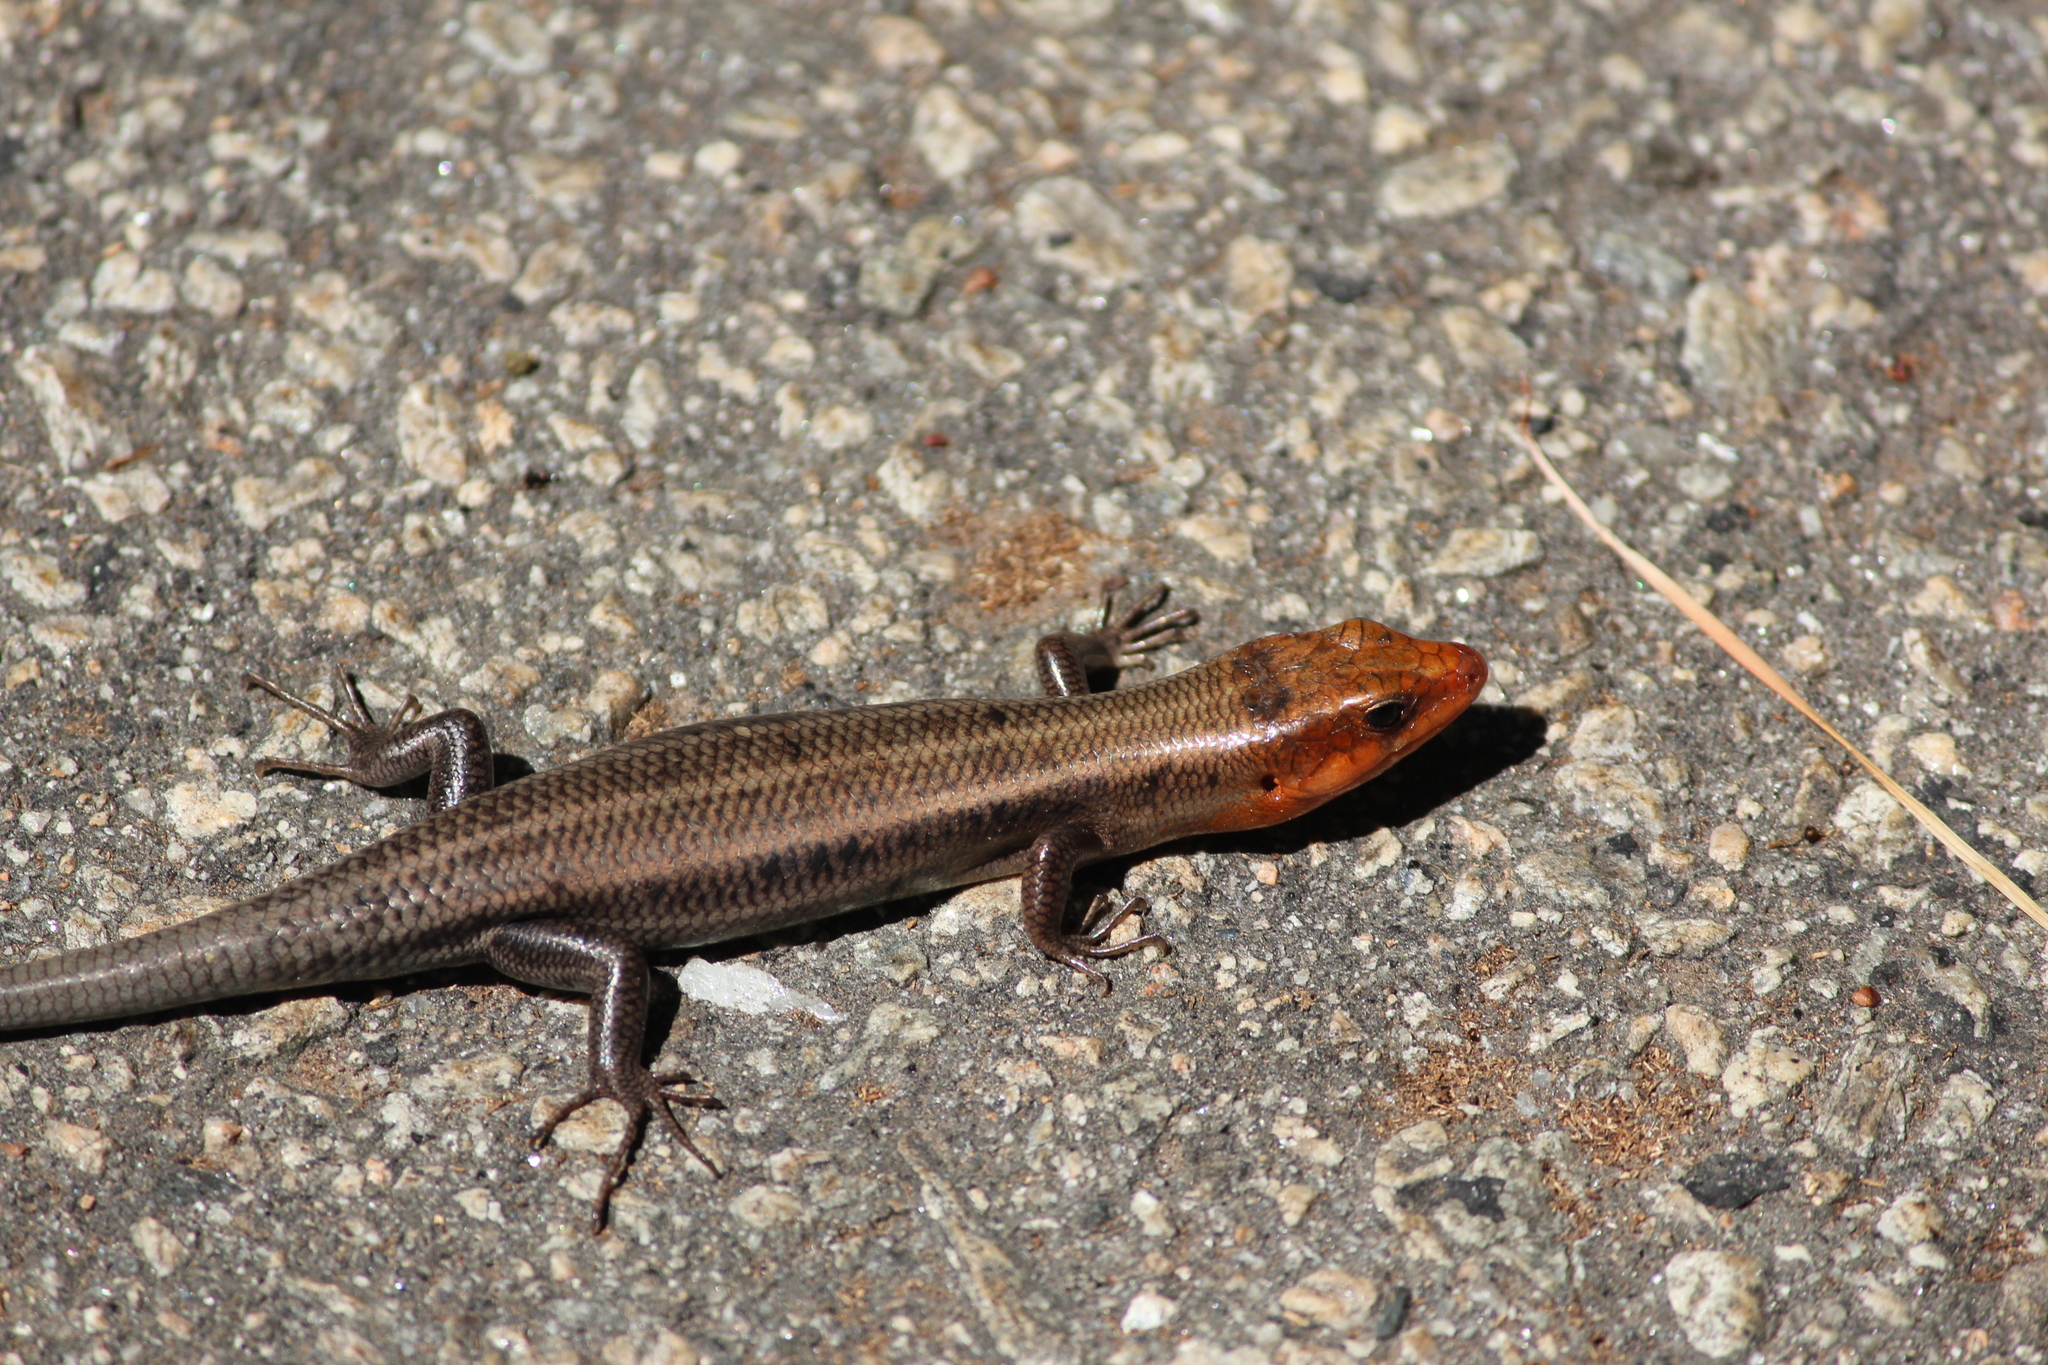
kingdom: Animalia
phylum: Chordata
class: Squamata
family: Scincidae
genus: Plestiodon
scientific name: Plestiodon fasciatus
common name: Five-lined skink
